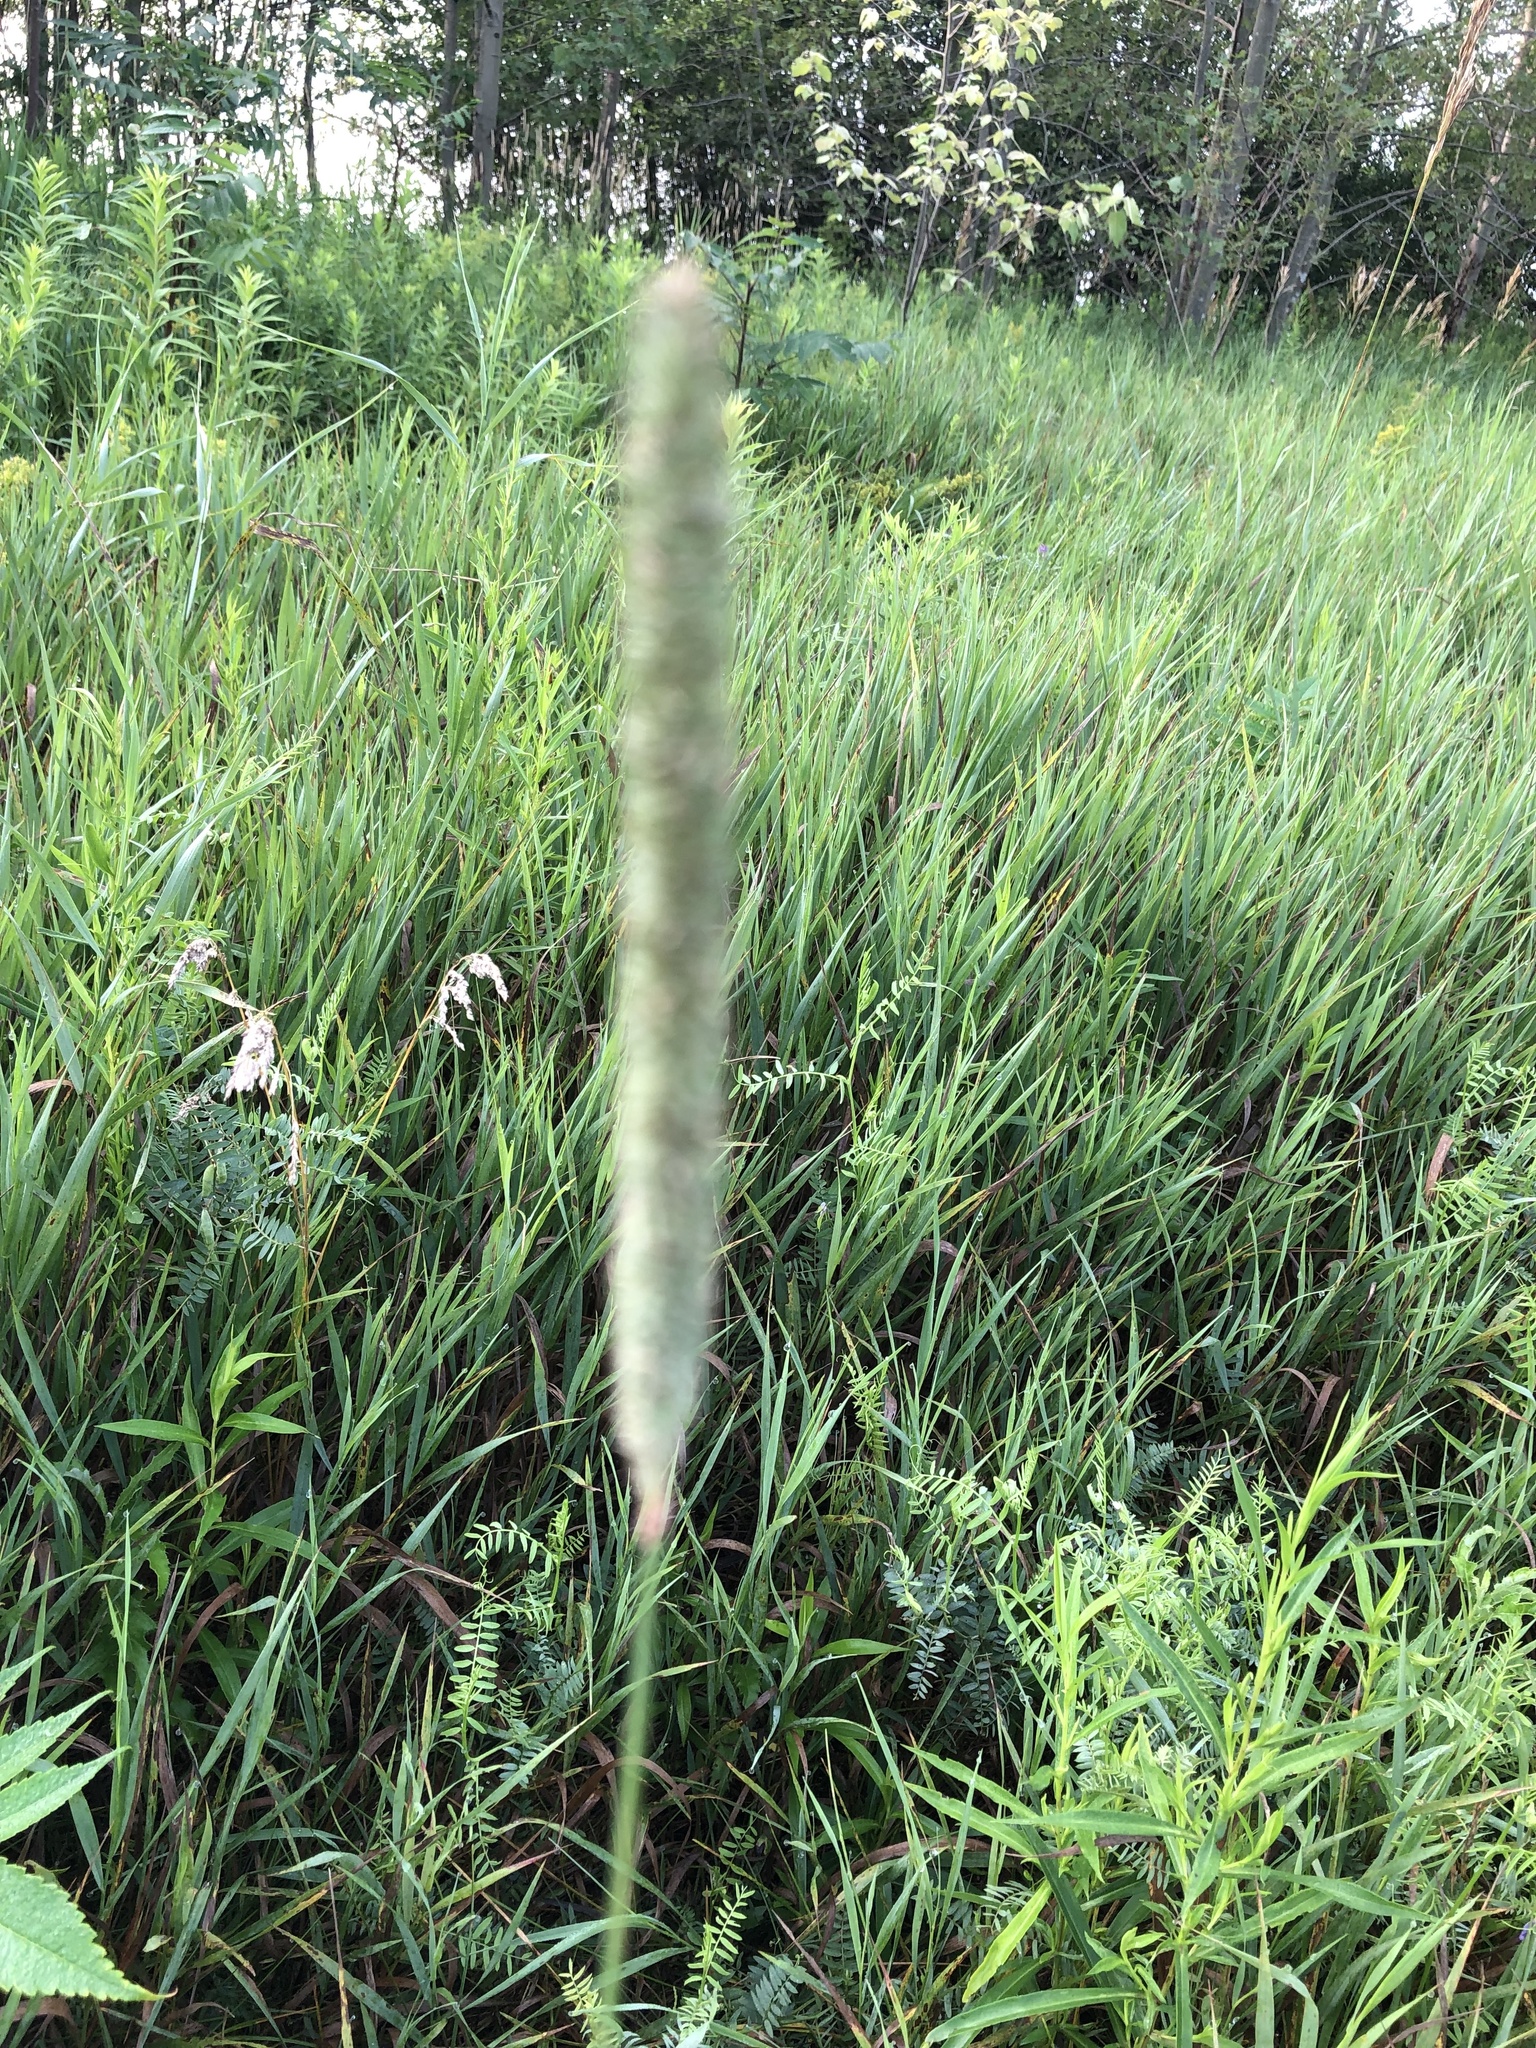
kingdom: Plantae
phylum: Tracheophyta
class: Liliopsida
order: Poales
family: Poaceae
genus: Phleum
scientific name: Phleum pratense
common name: Timothy grass
